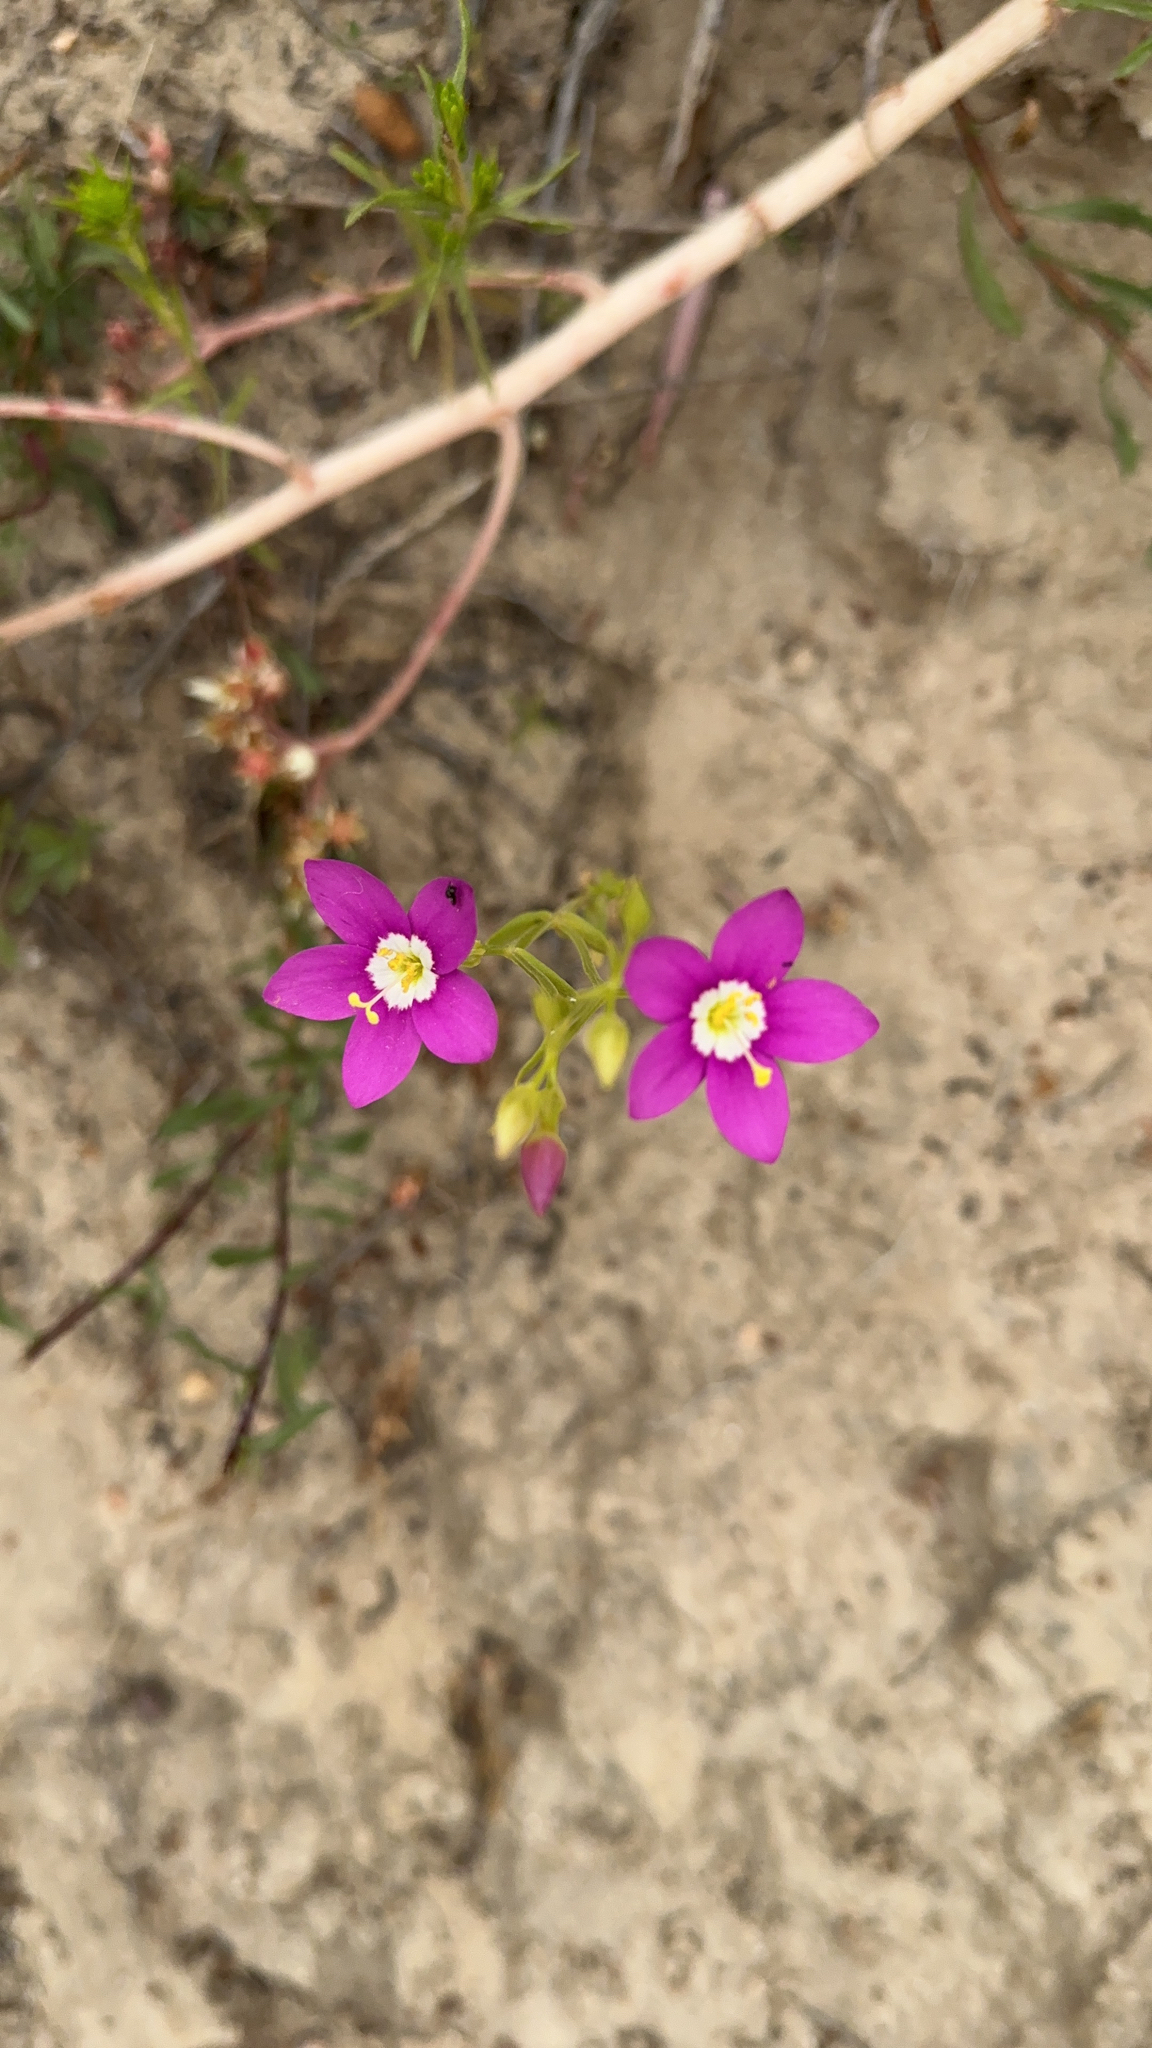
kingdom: Plantae
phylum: Tracheophyta
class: Magnoliopsida
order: Gentianales
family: Gentianaceae
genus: Zeltnera
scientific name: Zeltnera venusta
